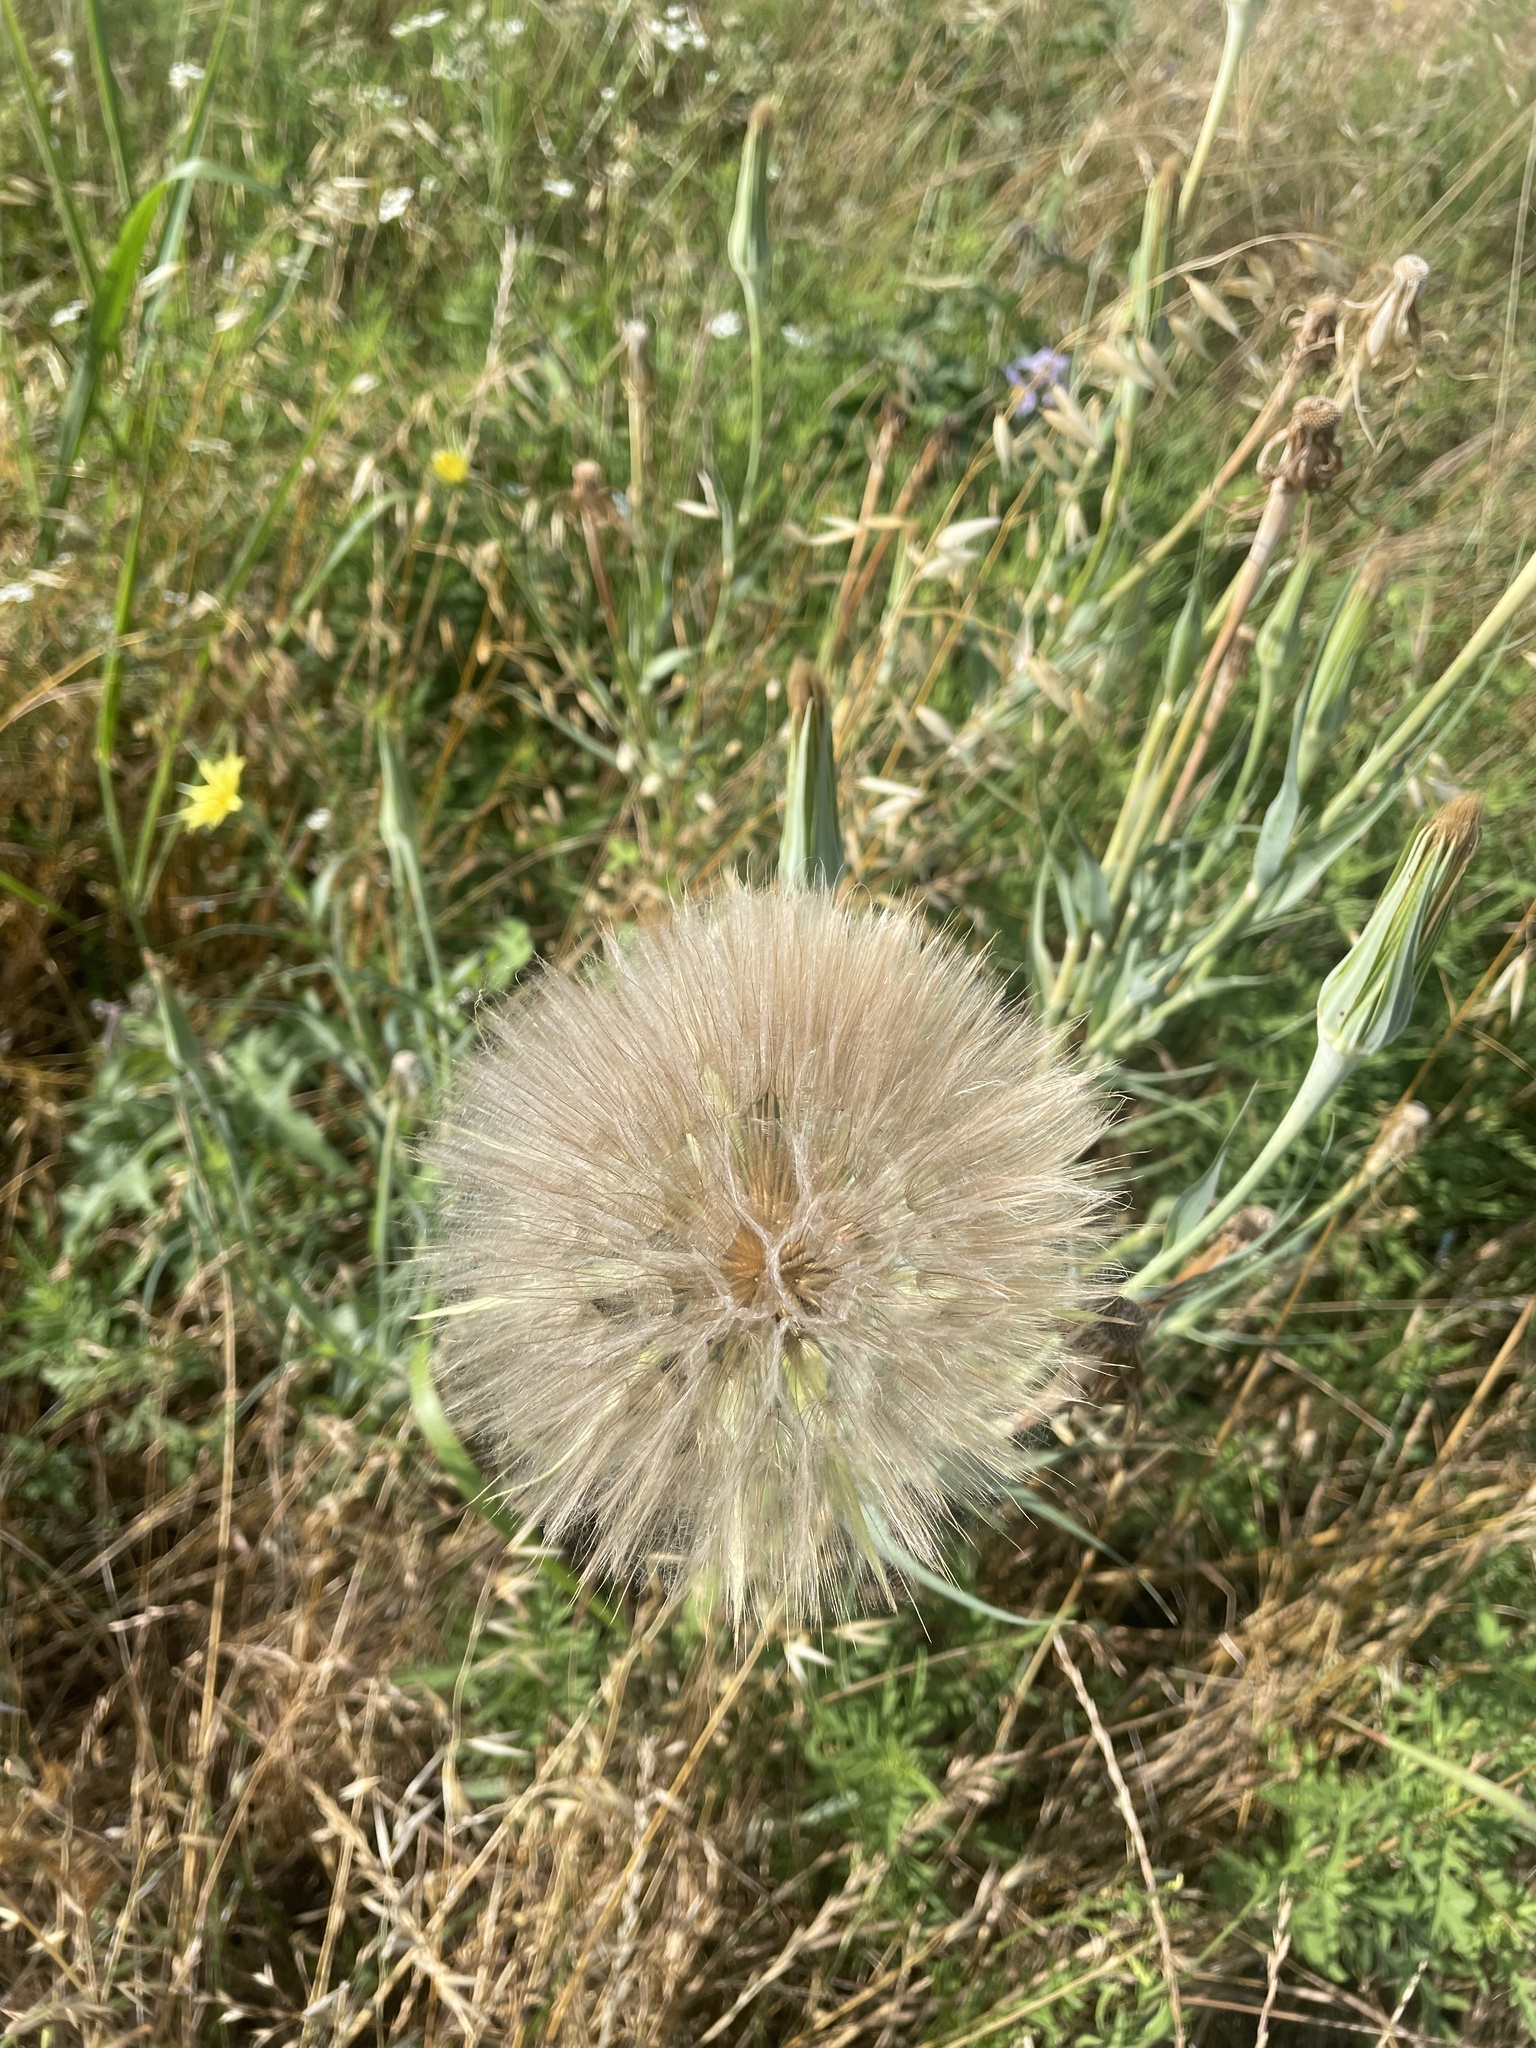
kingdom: Plantae
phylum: Tracheophyta
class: Magnoliopsida
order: Asterales
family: Asteraceae
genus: Tragopogon
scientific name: Tragopogon dubius
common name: Yellow salsify
